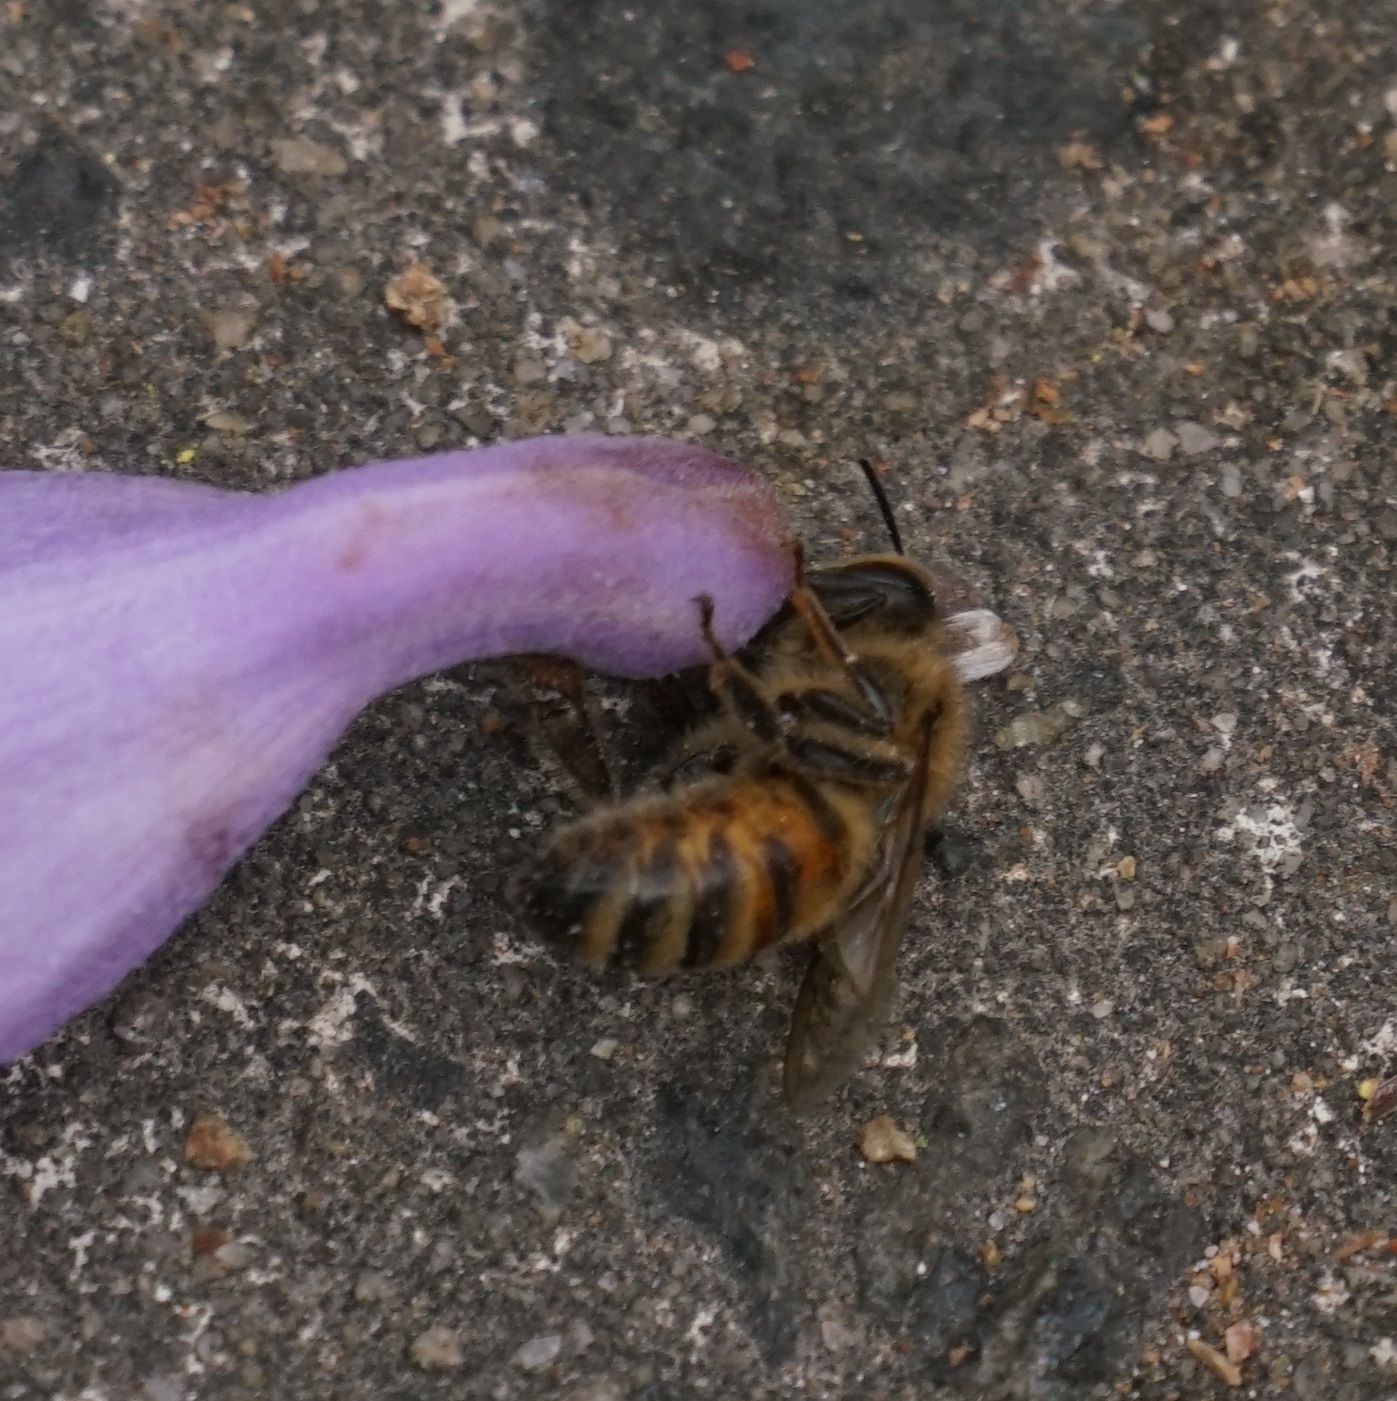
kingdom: Animalia
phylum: Arthropoda
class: Insecta
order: Hymenoptera
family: Apidae
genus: Apis
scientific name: Apis mellifera
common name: Honey bee
